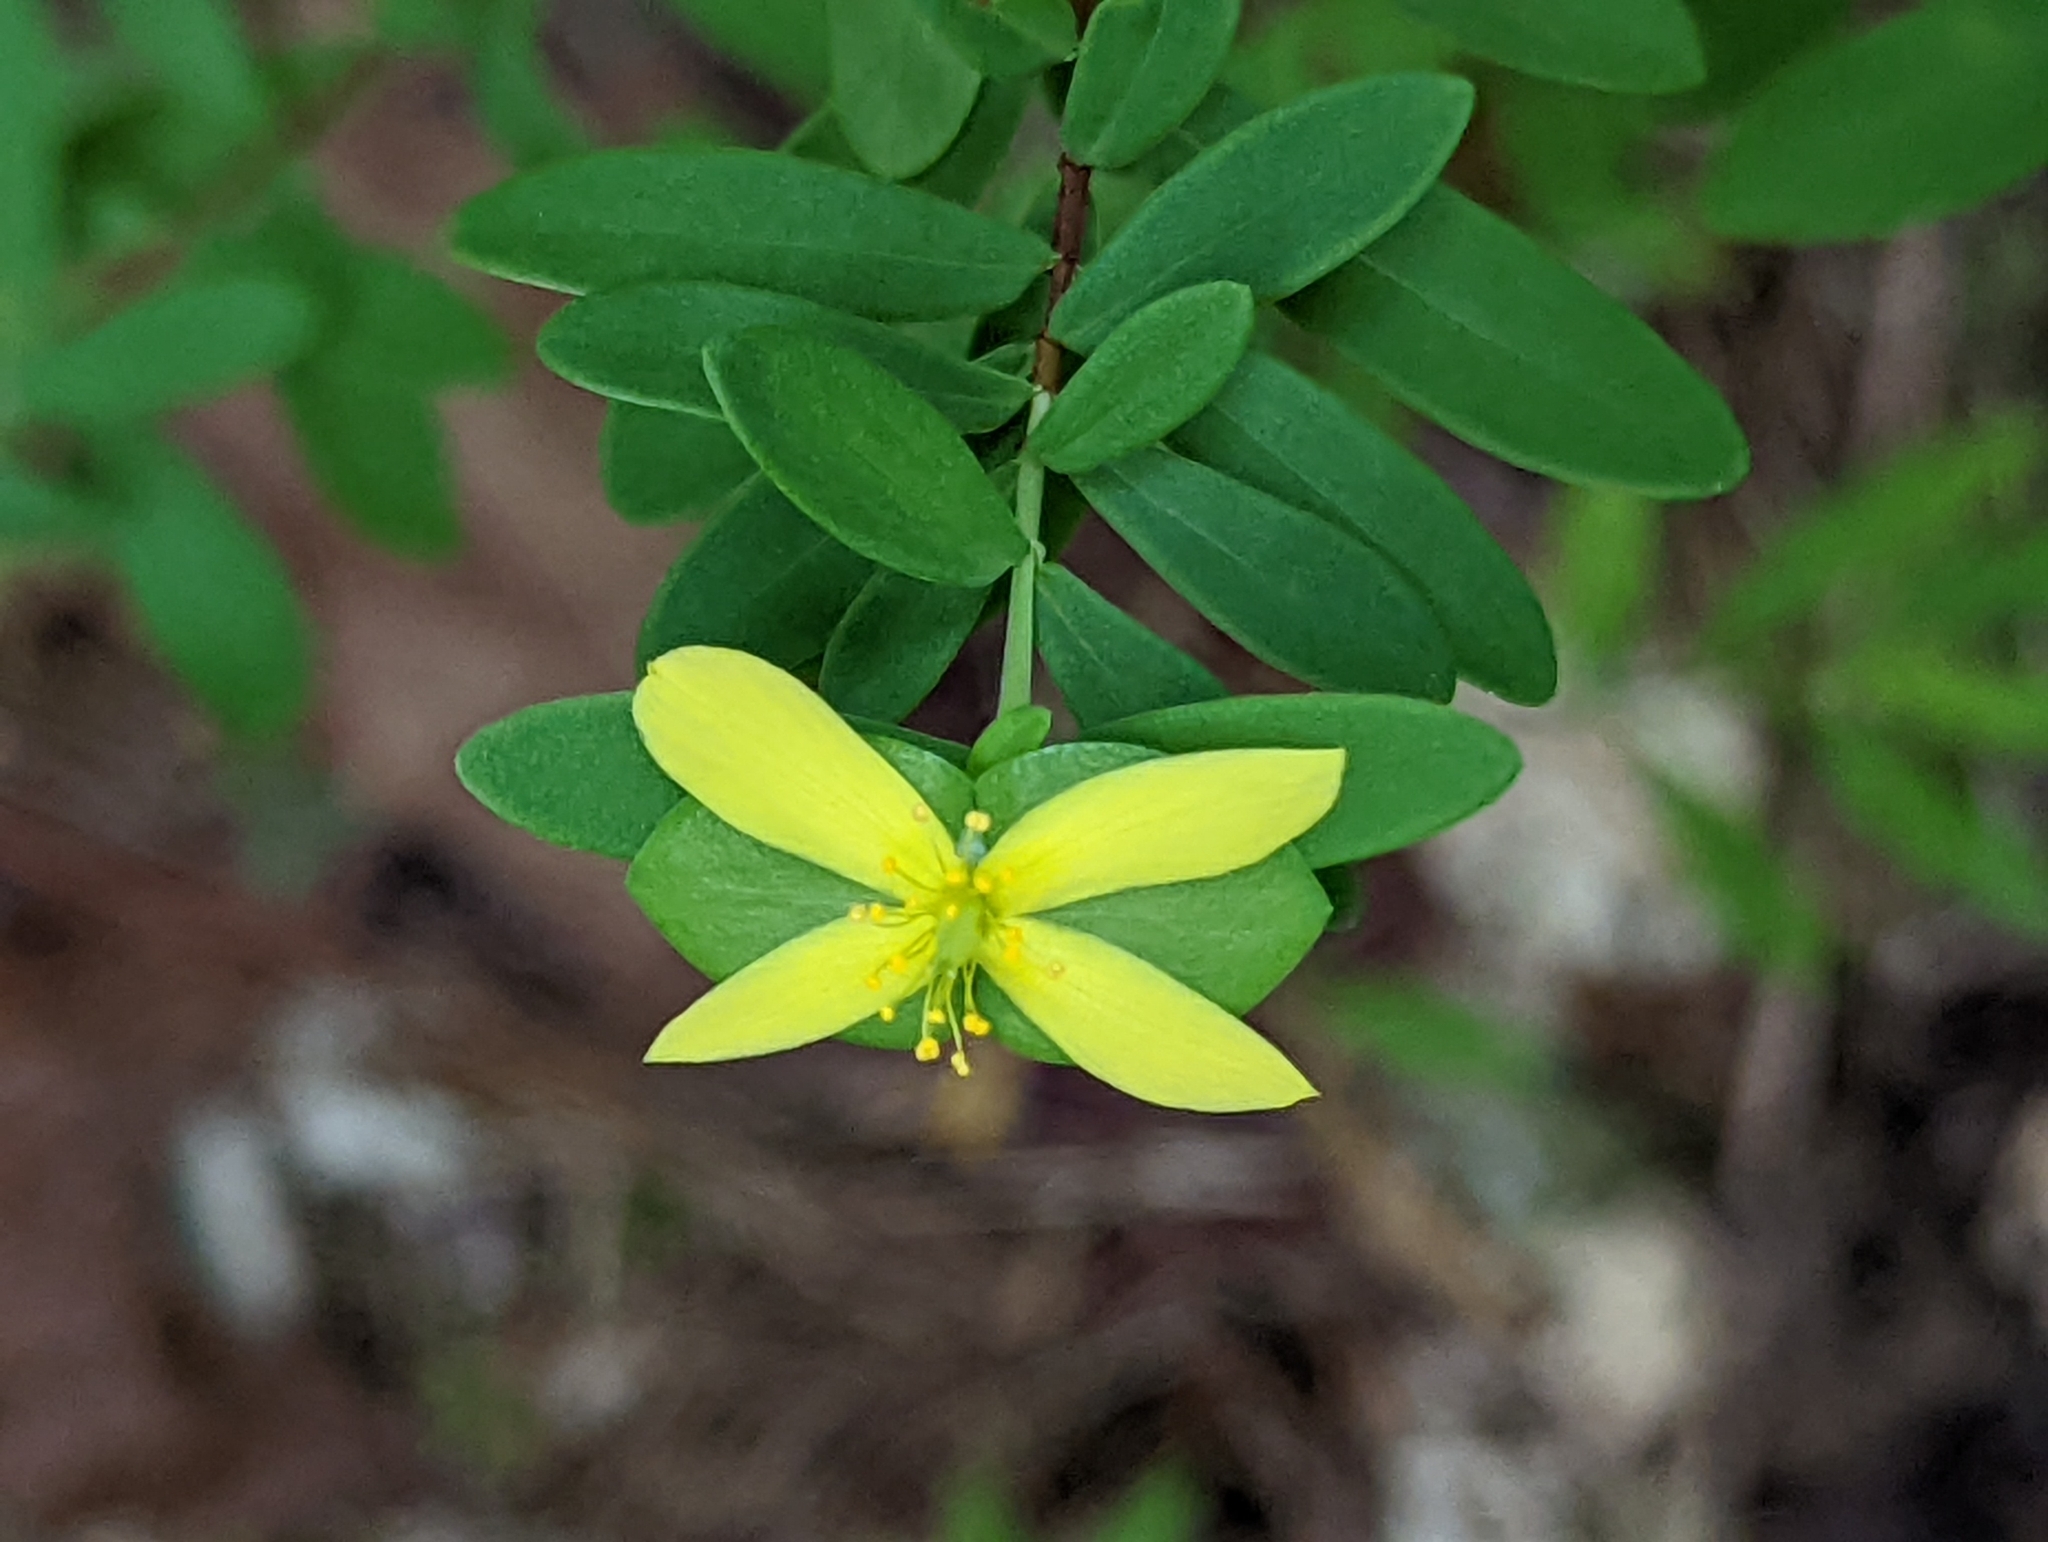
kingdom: Plantae
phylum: Tracheophyta
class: Magnoliopsida
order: Malpighiales
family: Hypericaceae
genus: Hypericum
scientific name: Hypericum hypericoides
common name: St. andrew's cross
